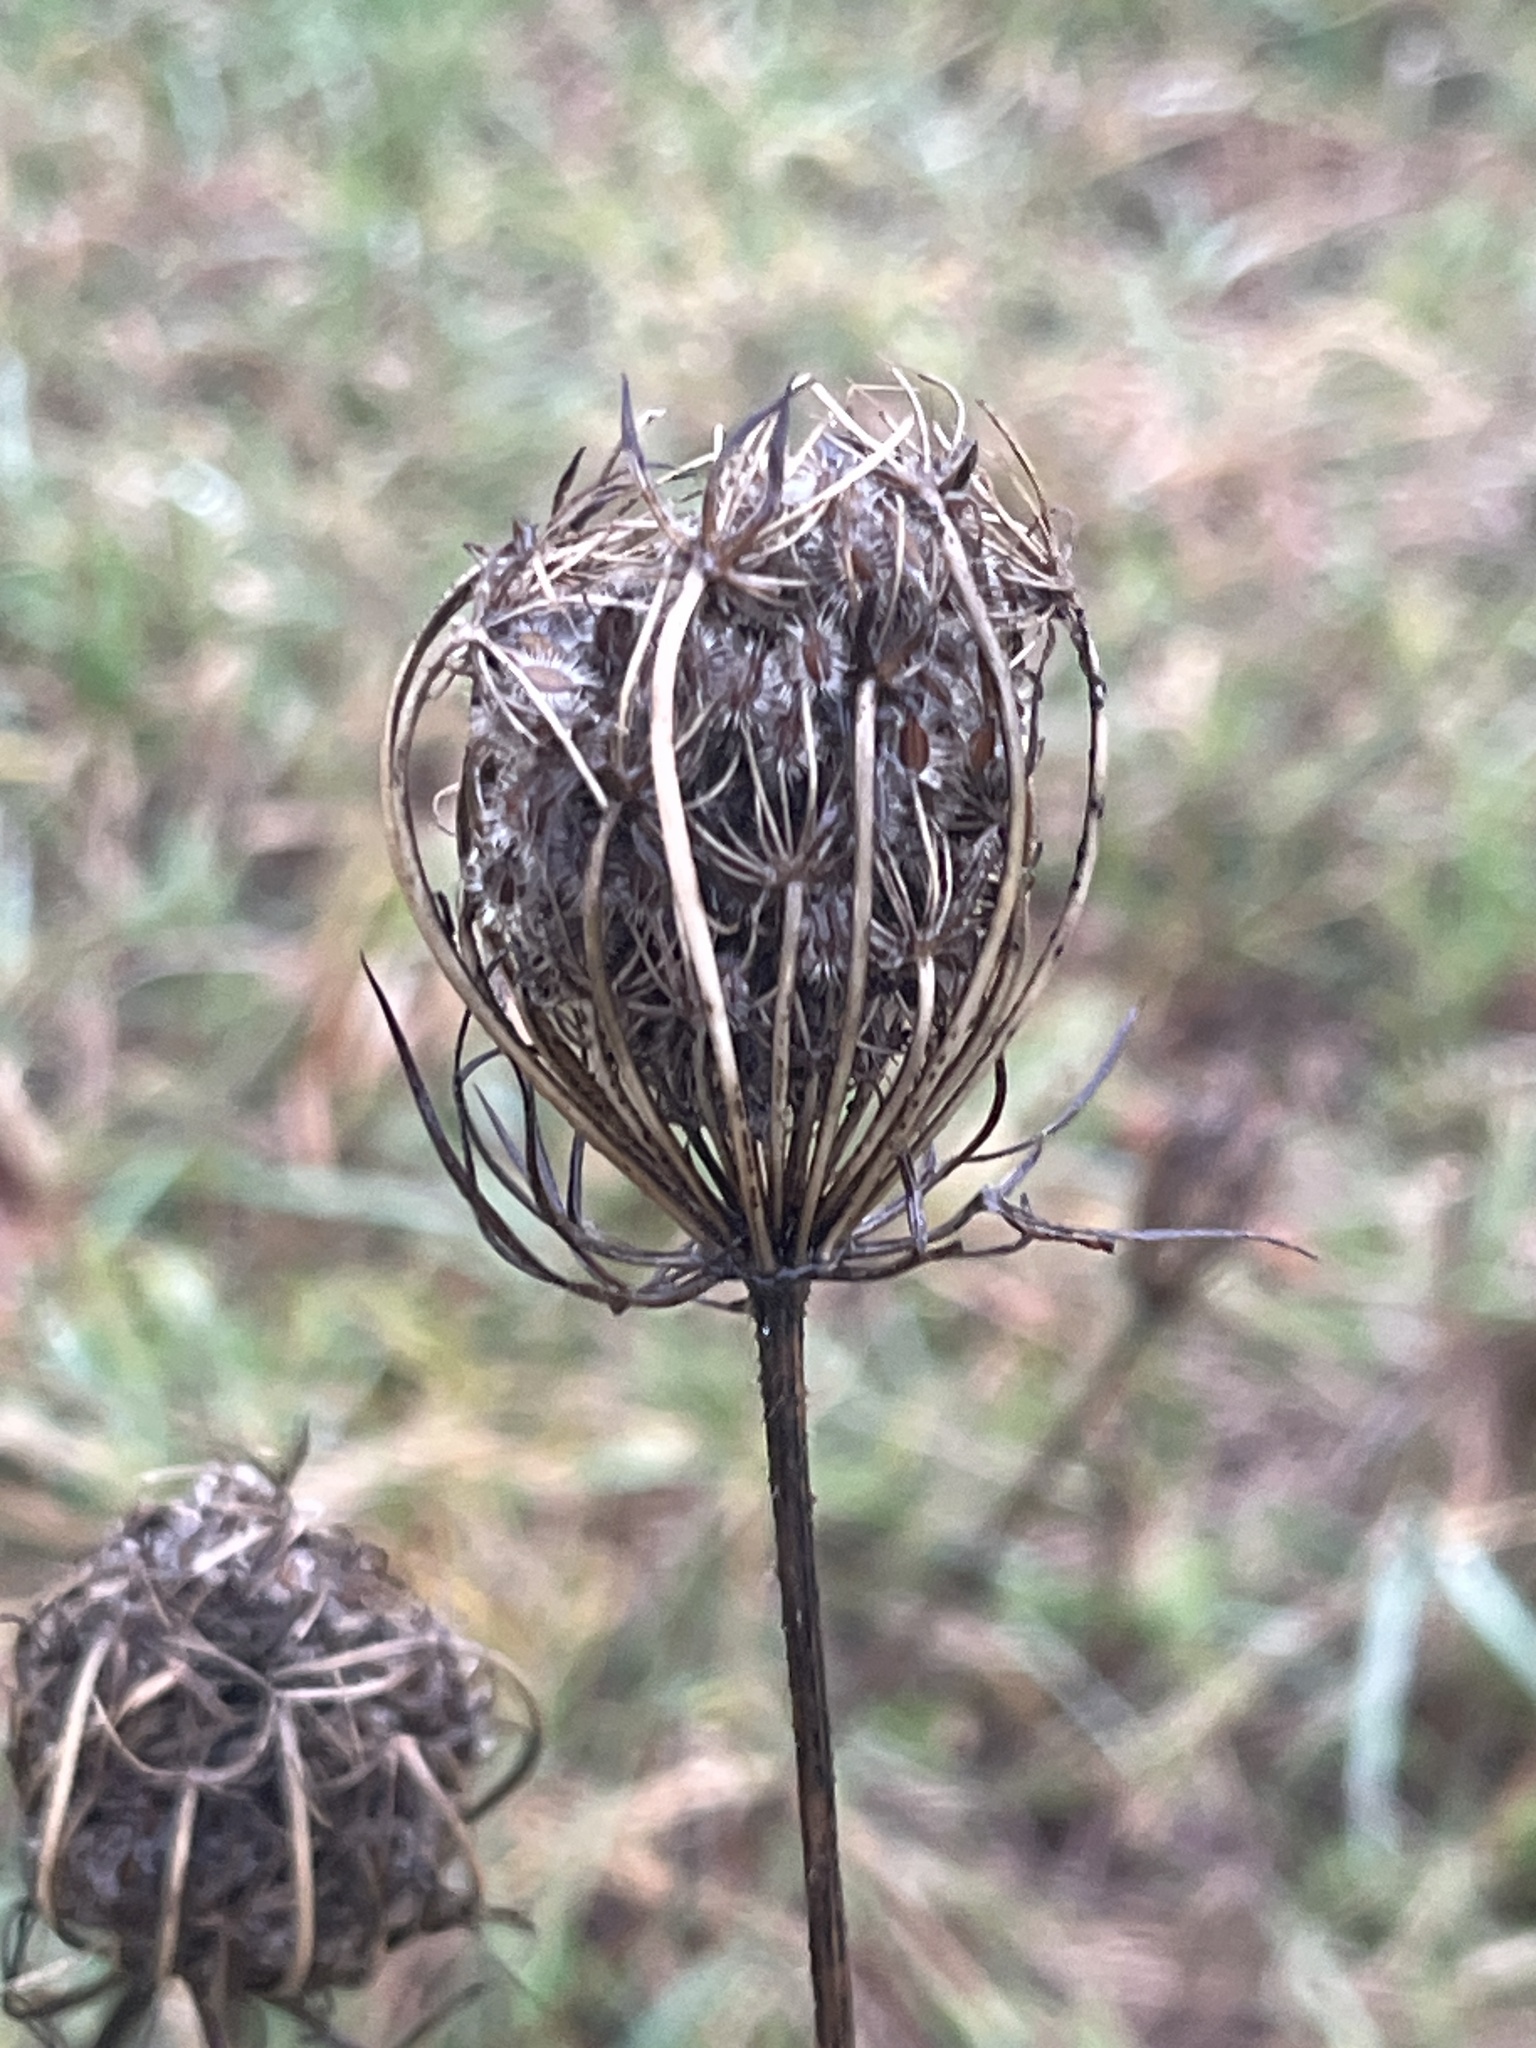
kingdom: Plantae
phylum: Tracheophyta
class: Magnoliopsida
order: Apiales
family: Apiaceae
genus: Daucus
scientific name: Daucus carota
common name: Wild carrot
